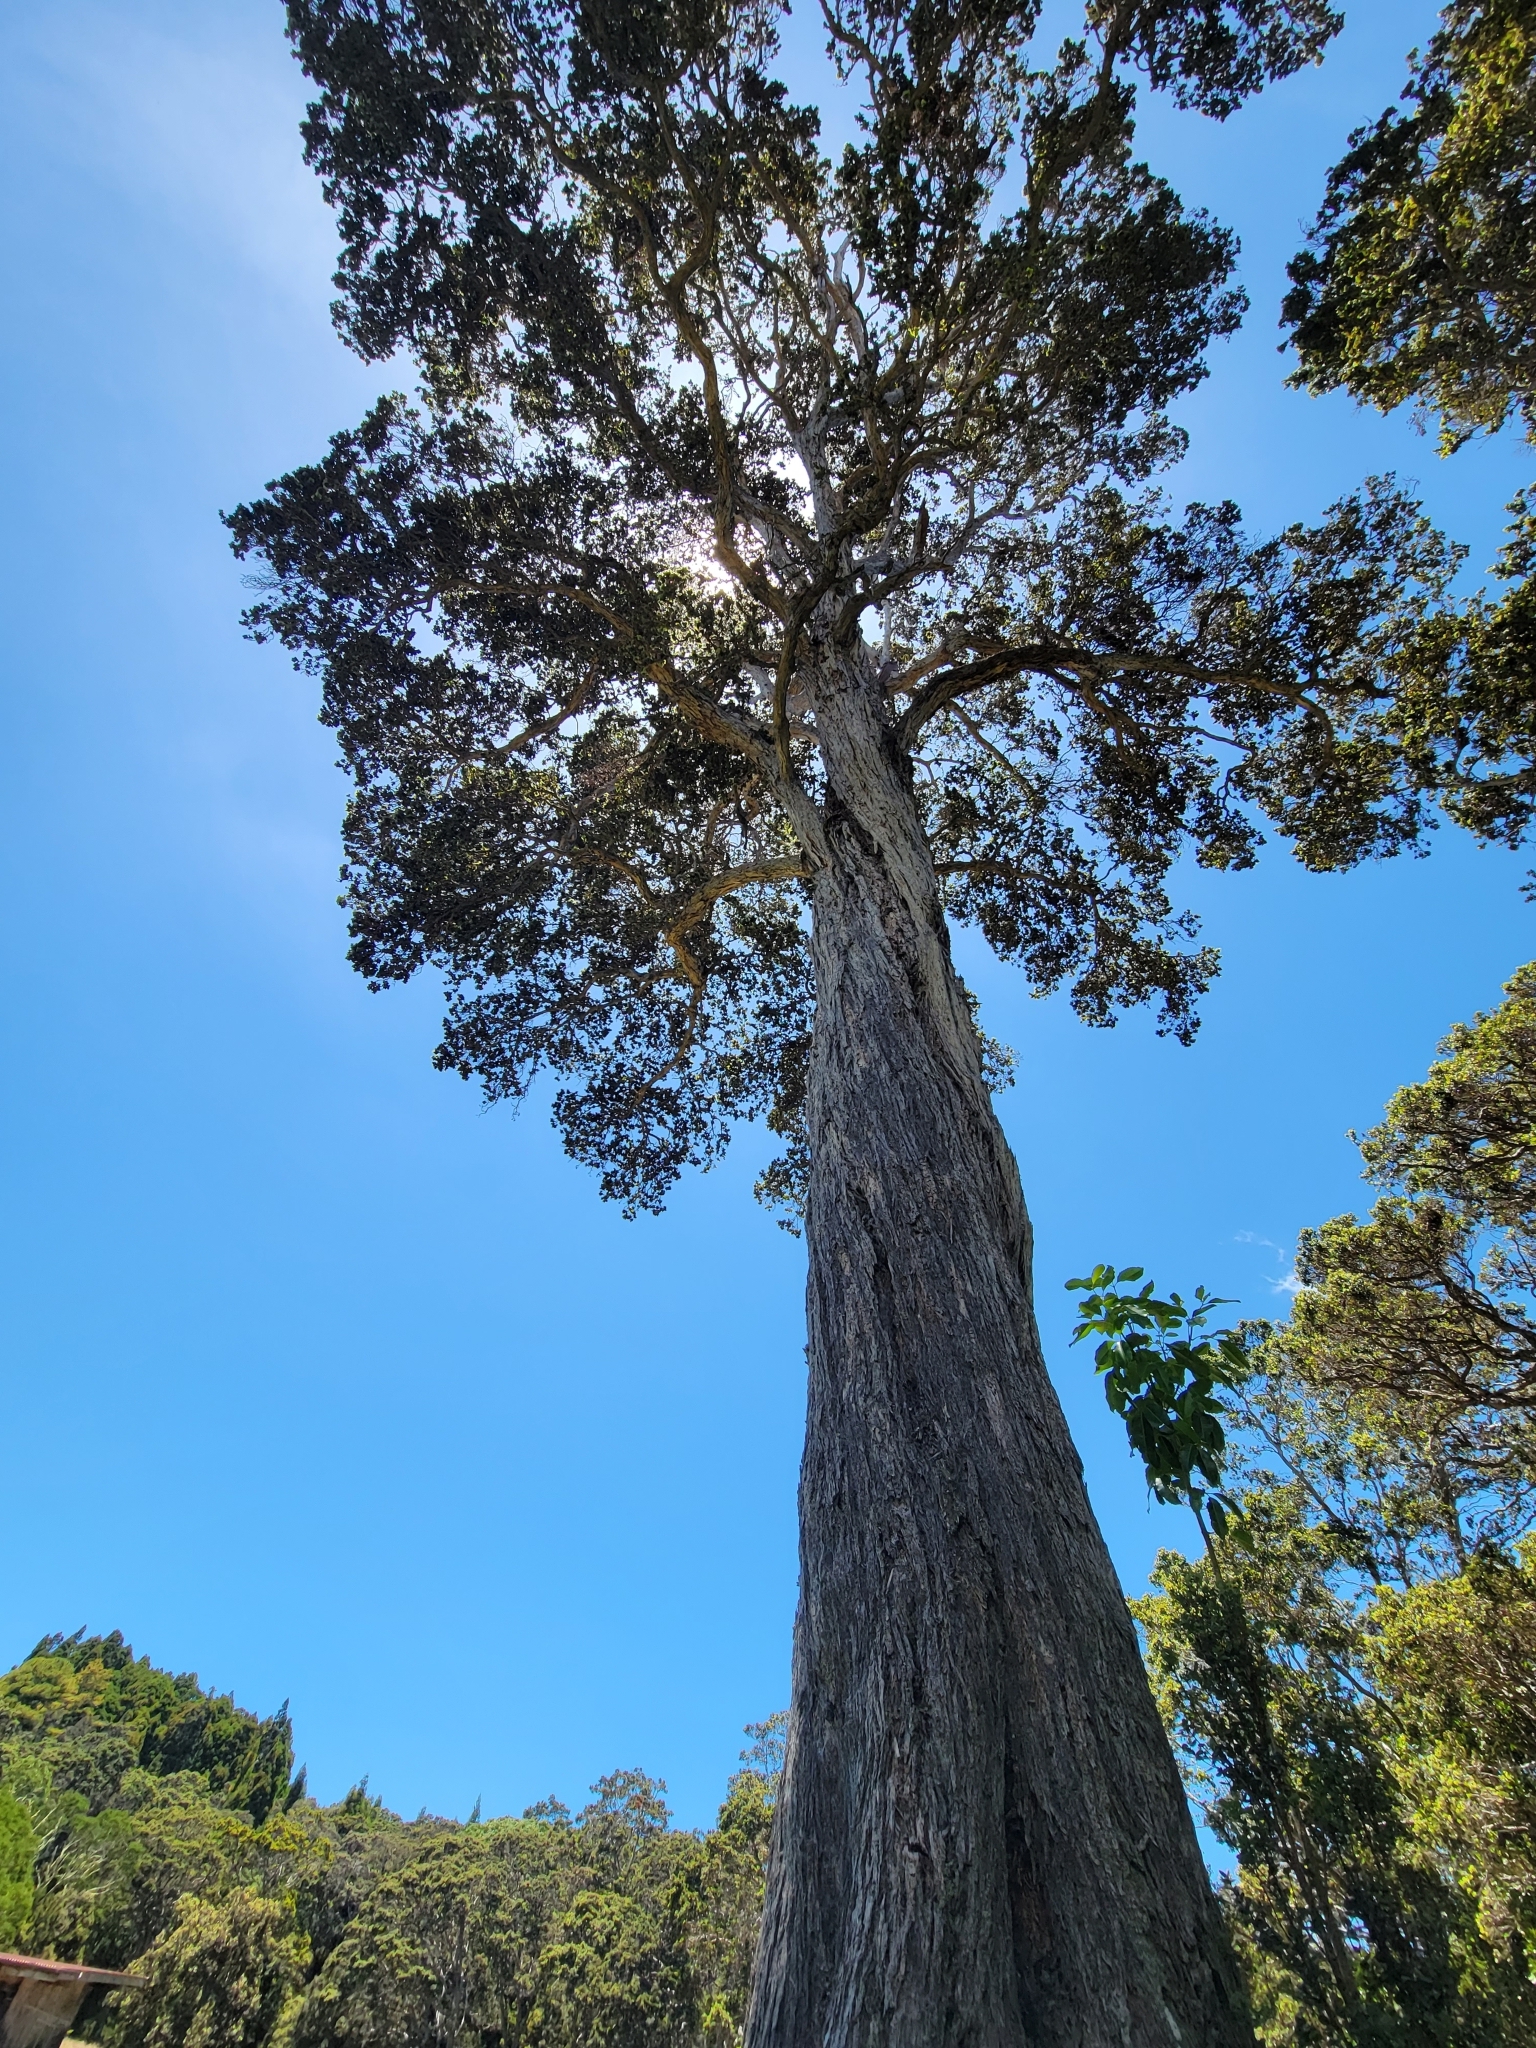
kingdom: Plantae
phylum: Tracheophyta
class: Magnoliopsida
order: Myrtales
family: Myrtaceae
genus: Metrosideros
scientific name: Metrosideros polymorpha
